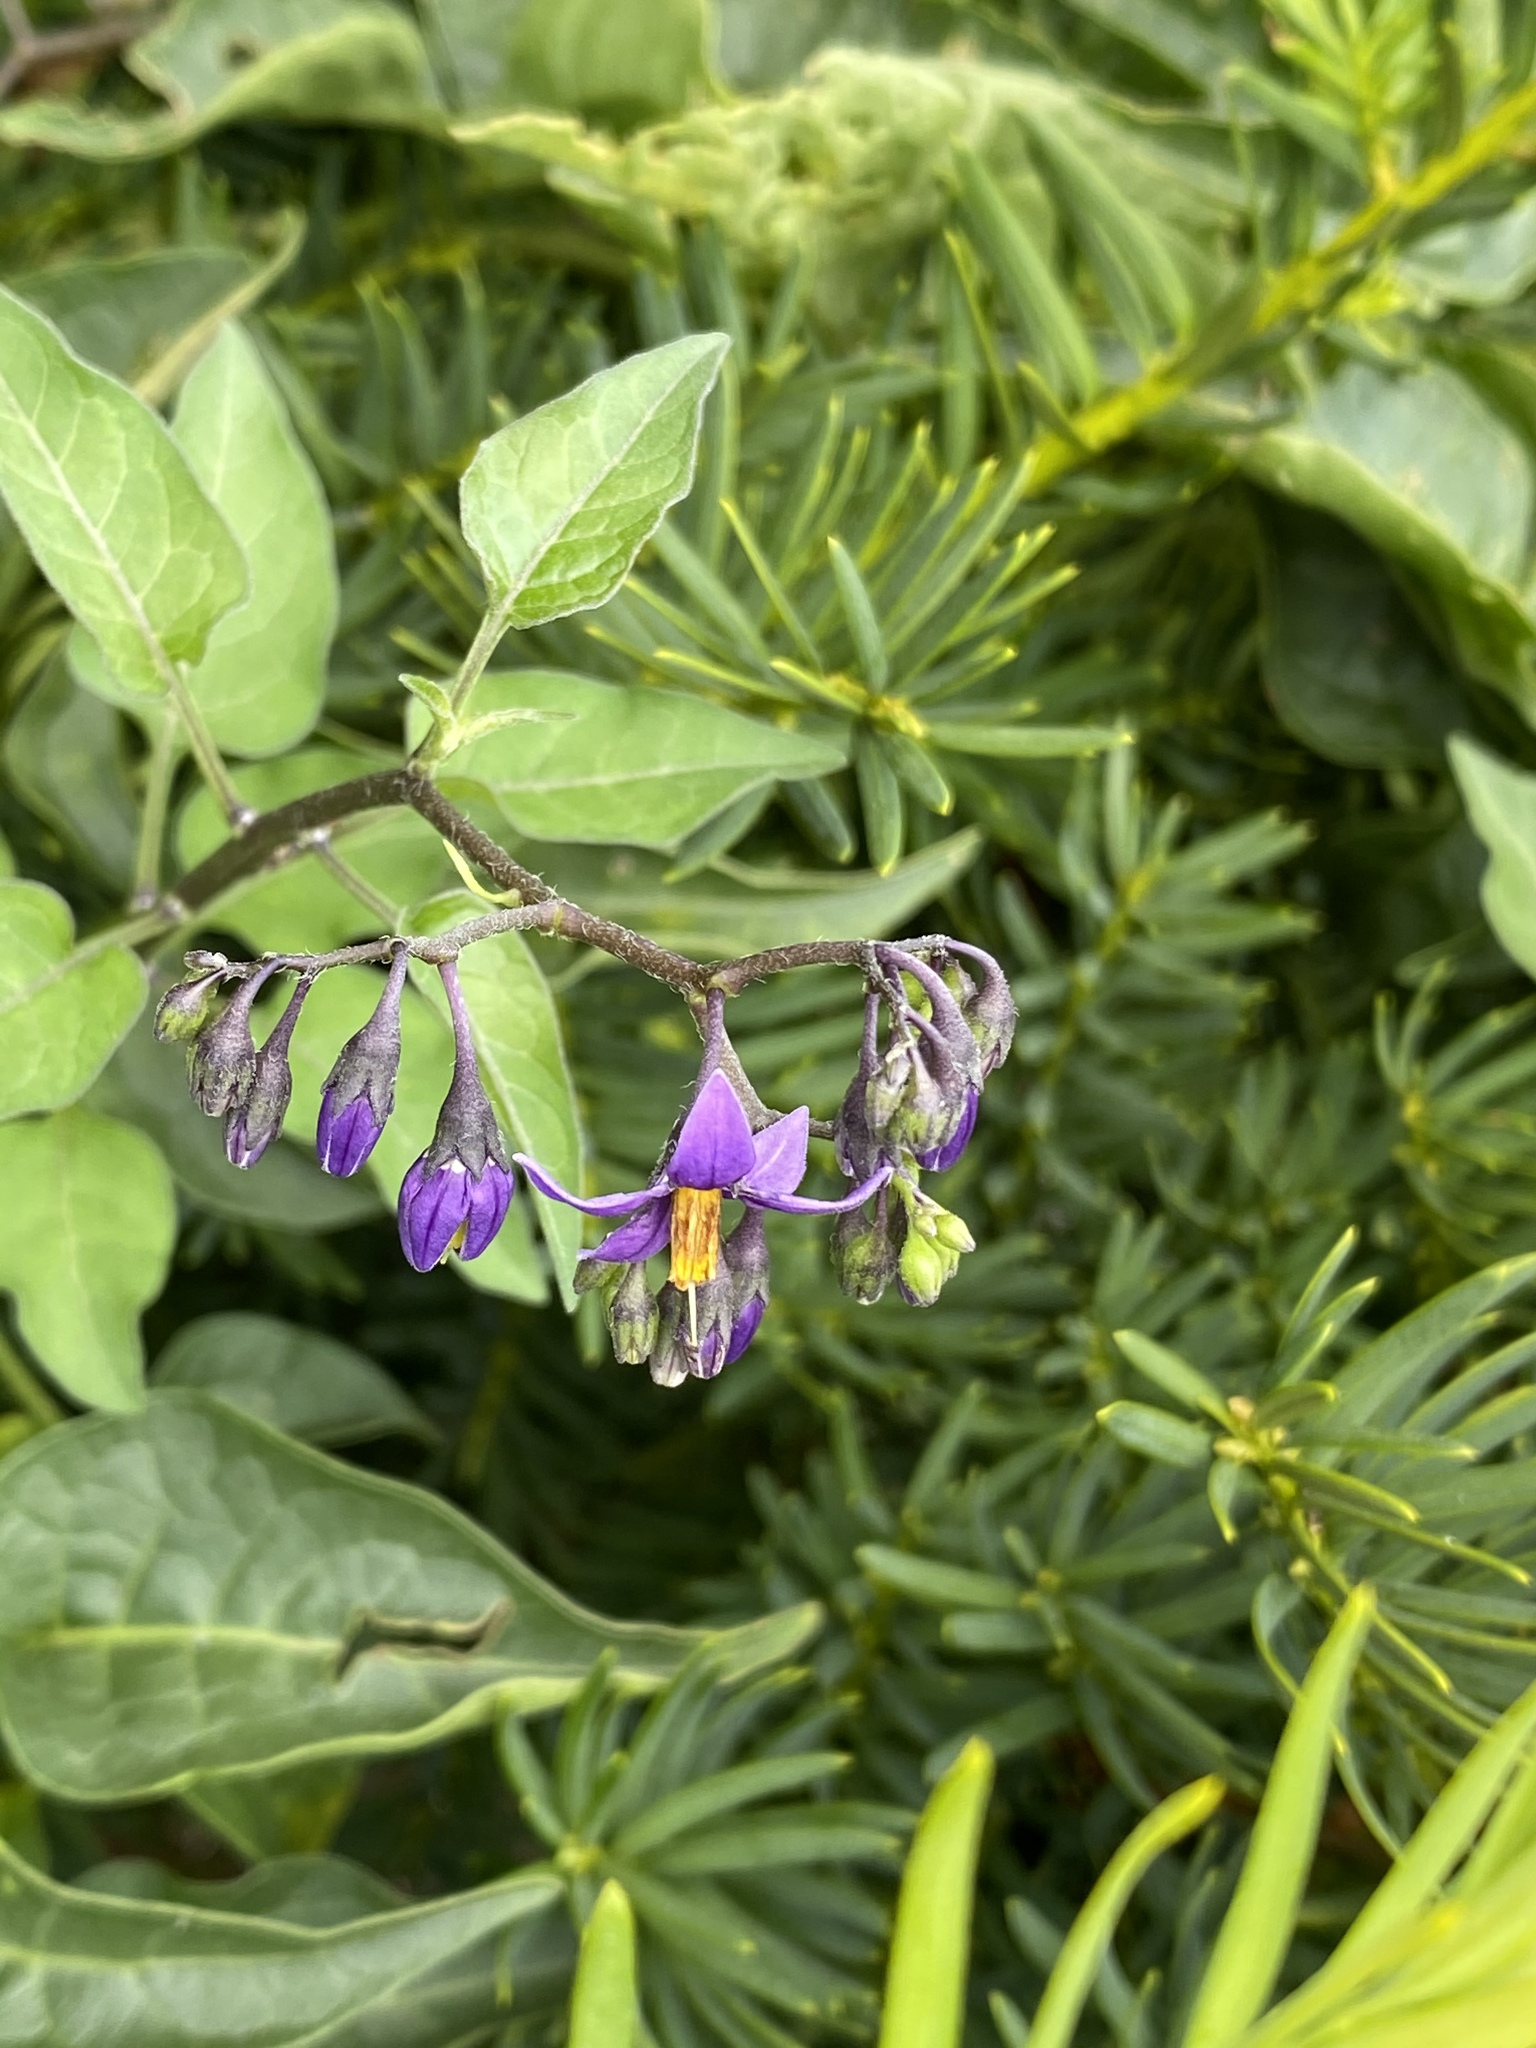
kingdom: Plantae
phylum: Tracheophyta
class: Magnoliopsida
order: Solanales
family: Solanaceae
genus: Solanum
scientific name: Solanum dulcamara
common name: Climbing nightshade
